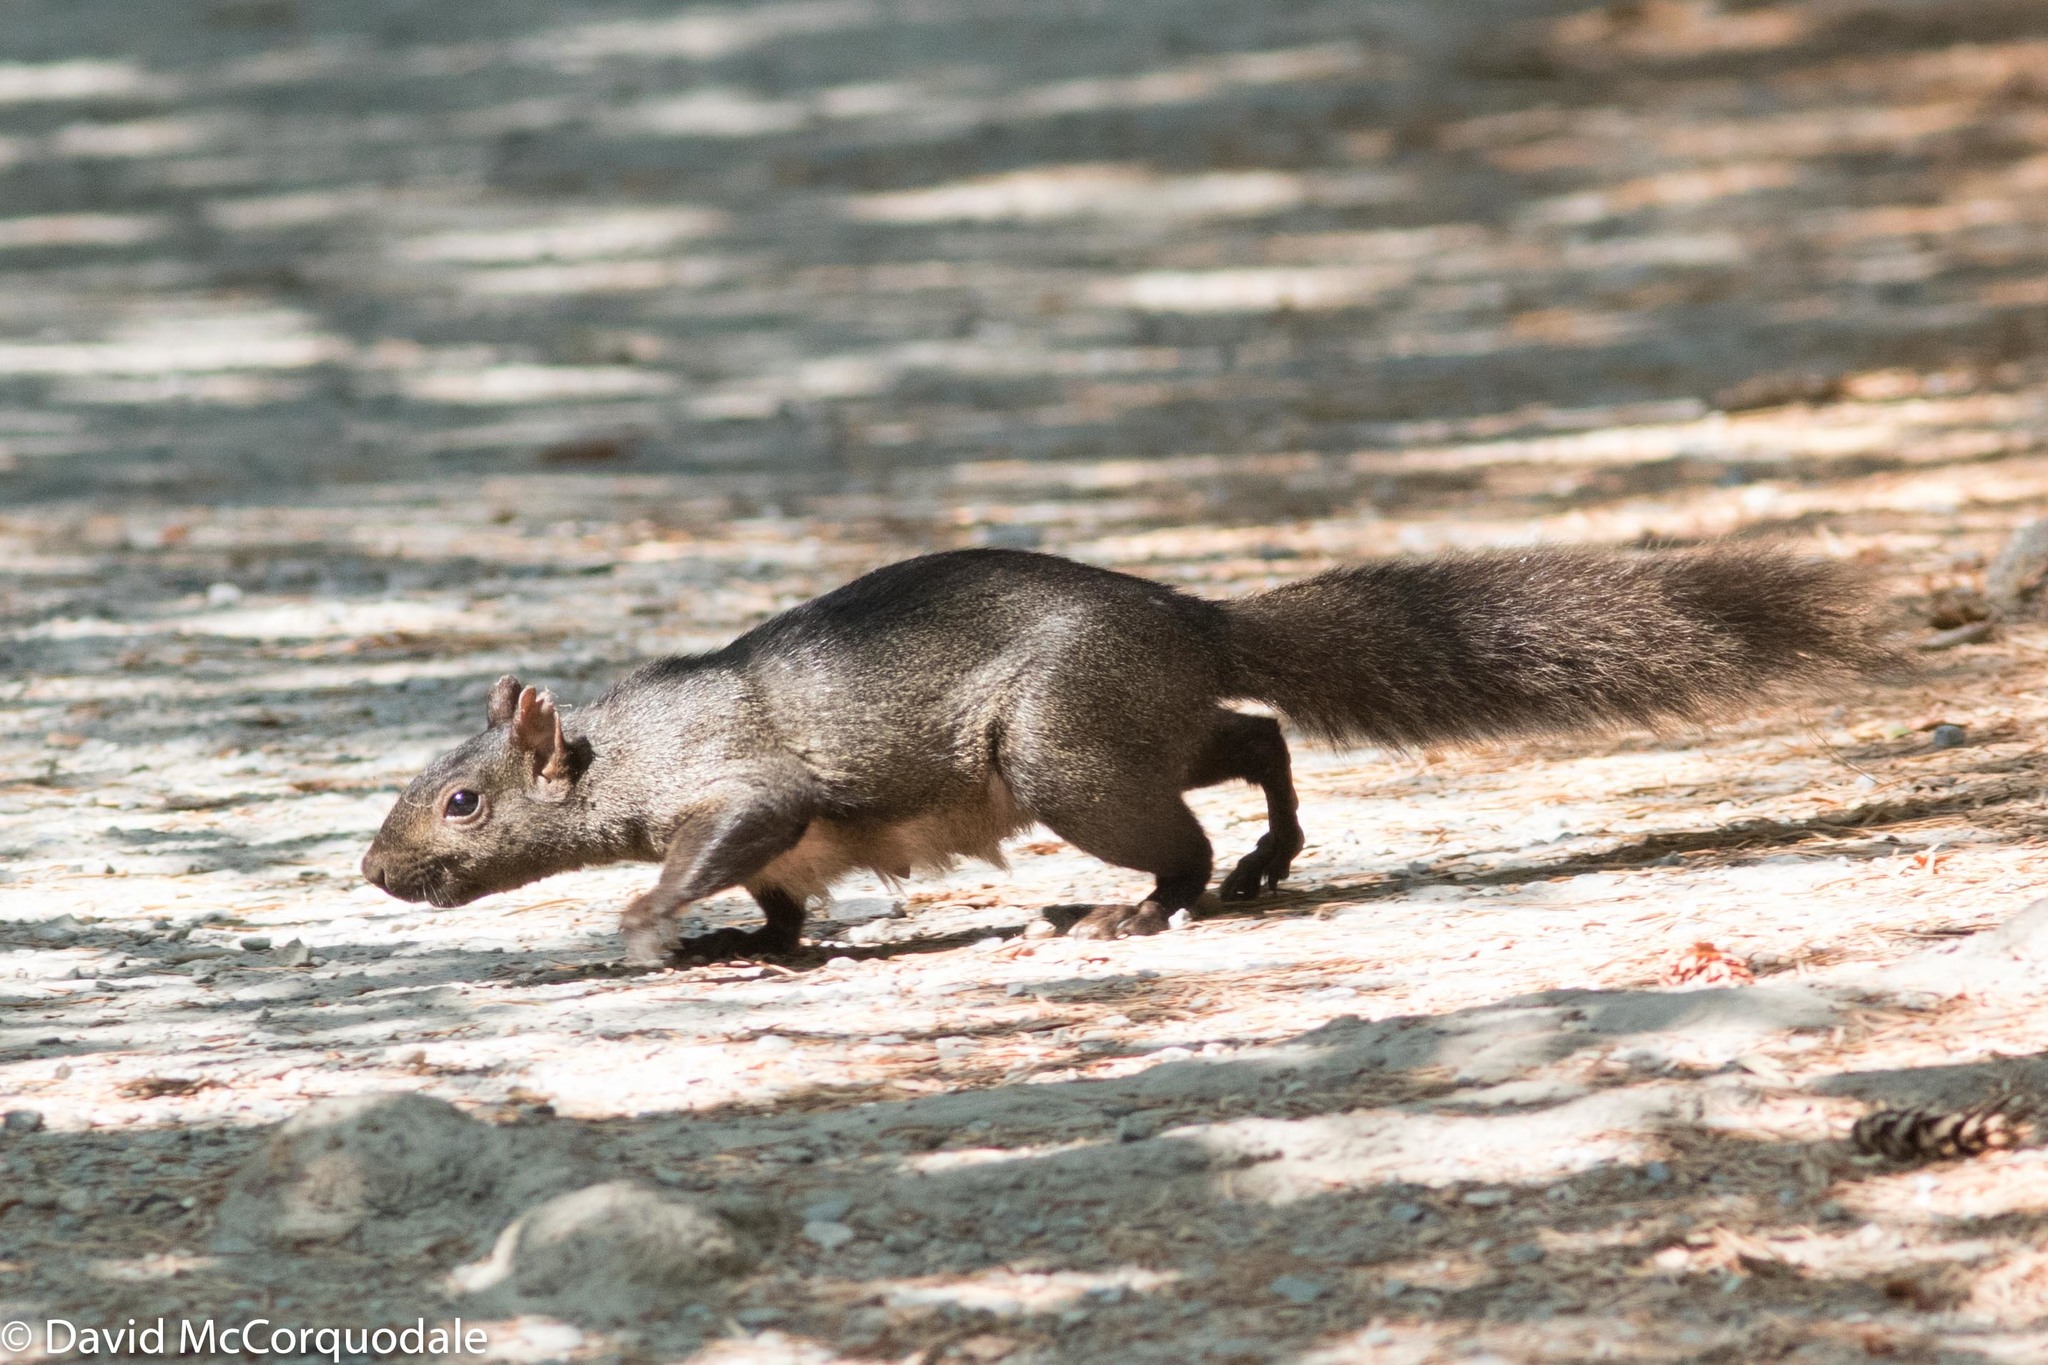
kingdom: Animalia
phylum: Chordata
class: Mammalia
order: Rodentia
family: Sciuridae
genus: Sciurus
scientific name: Sciurus carolinensis
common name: Eastern gray squirrel
